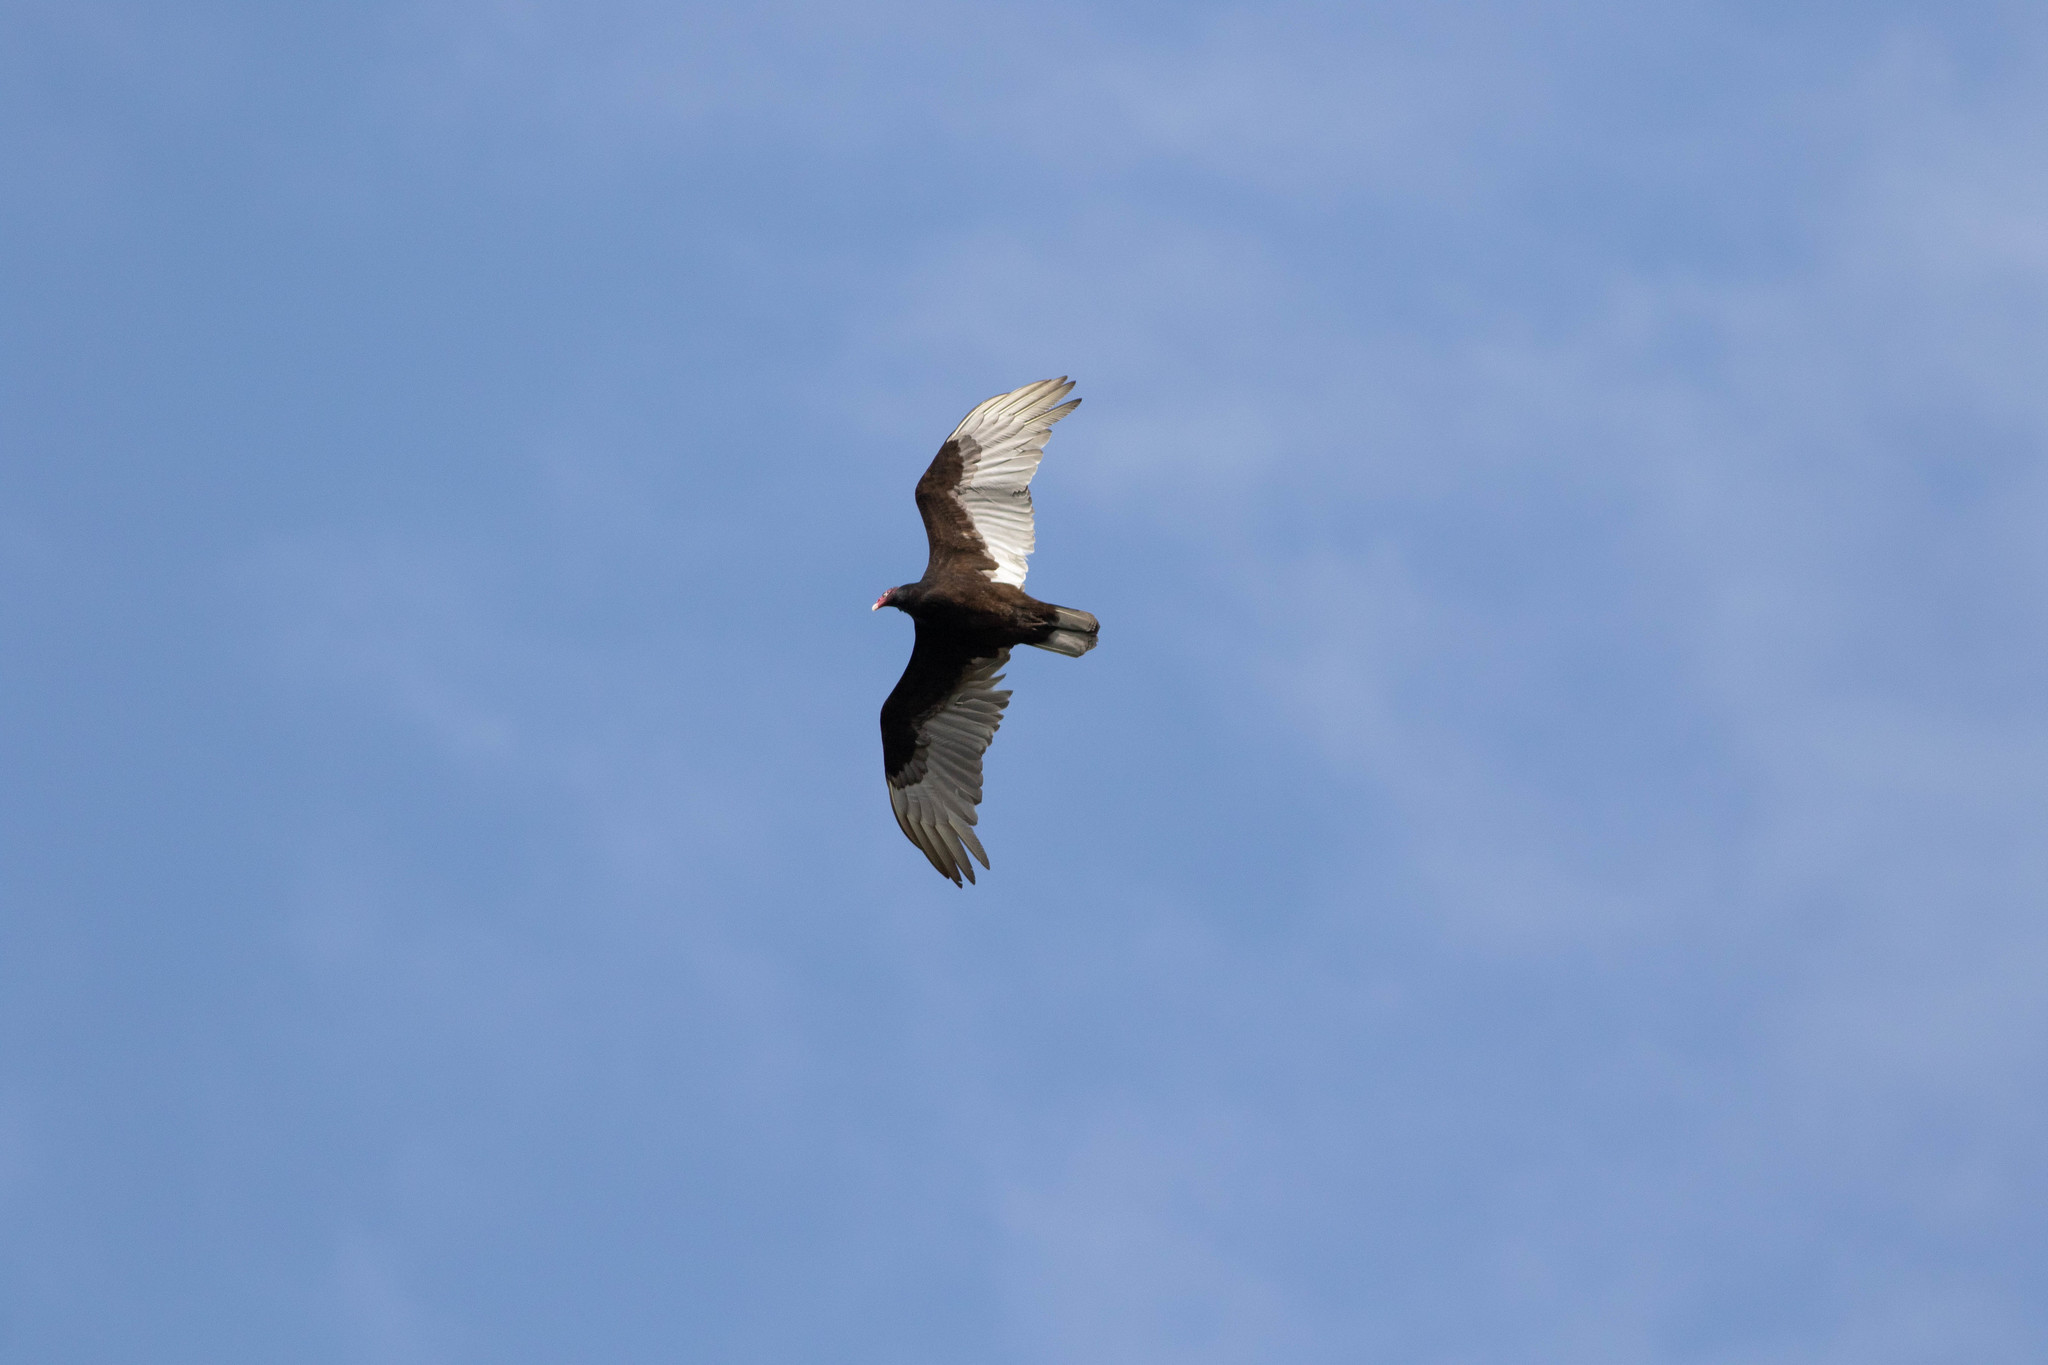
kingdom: Animalia
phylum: Chordata
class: Aves
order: Accipitriformes
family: Cathartidae
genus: Cathartes
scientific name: Cathartes aura
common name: Turkey vulture
